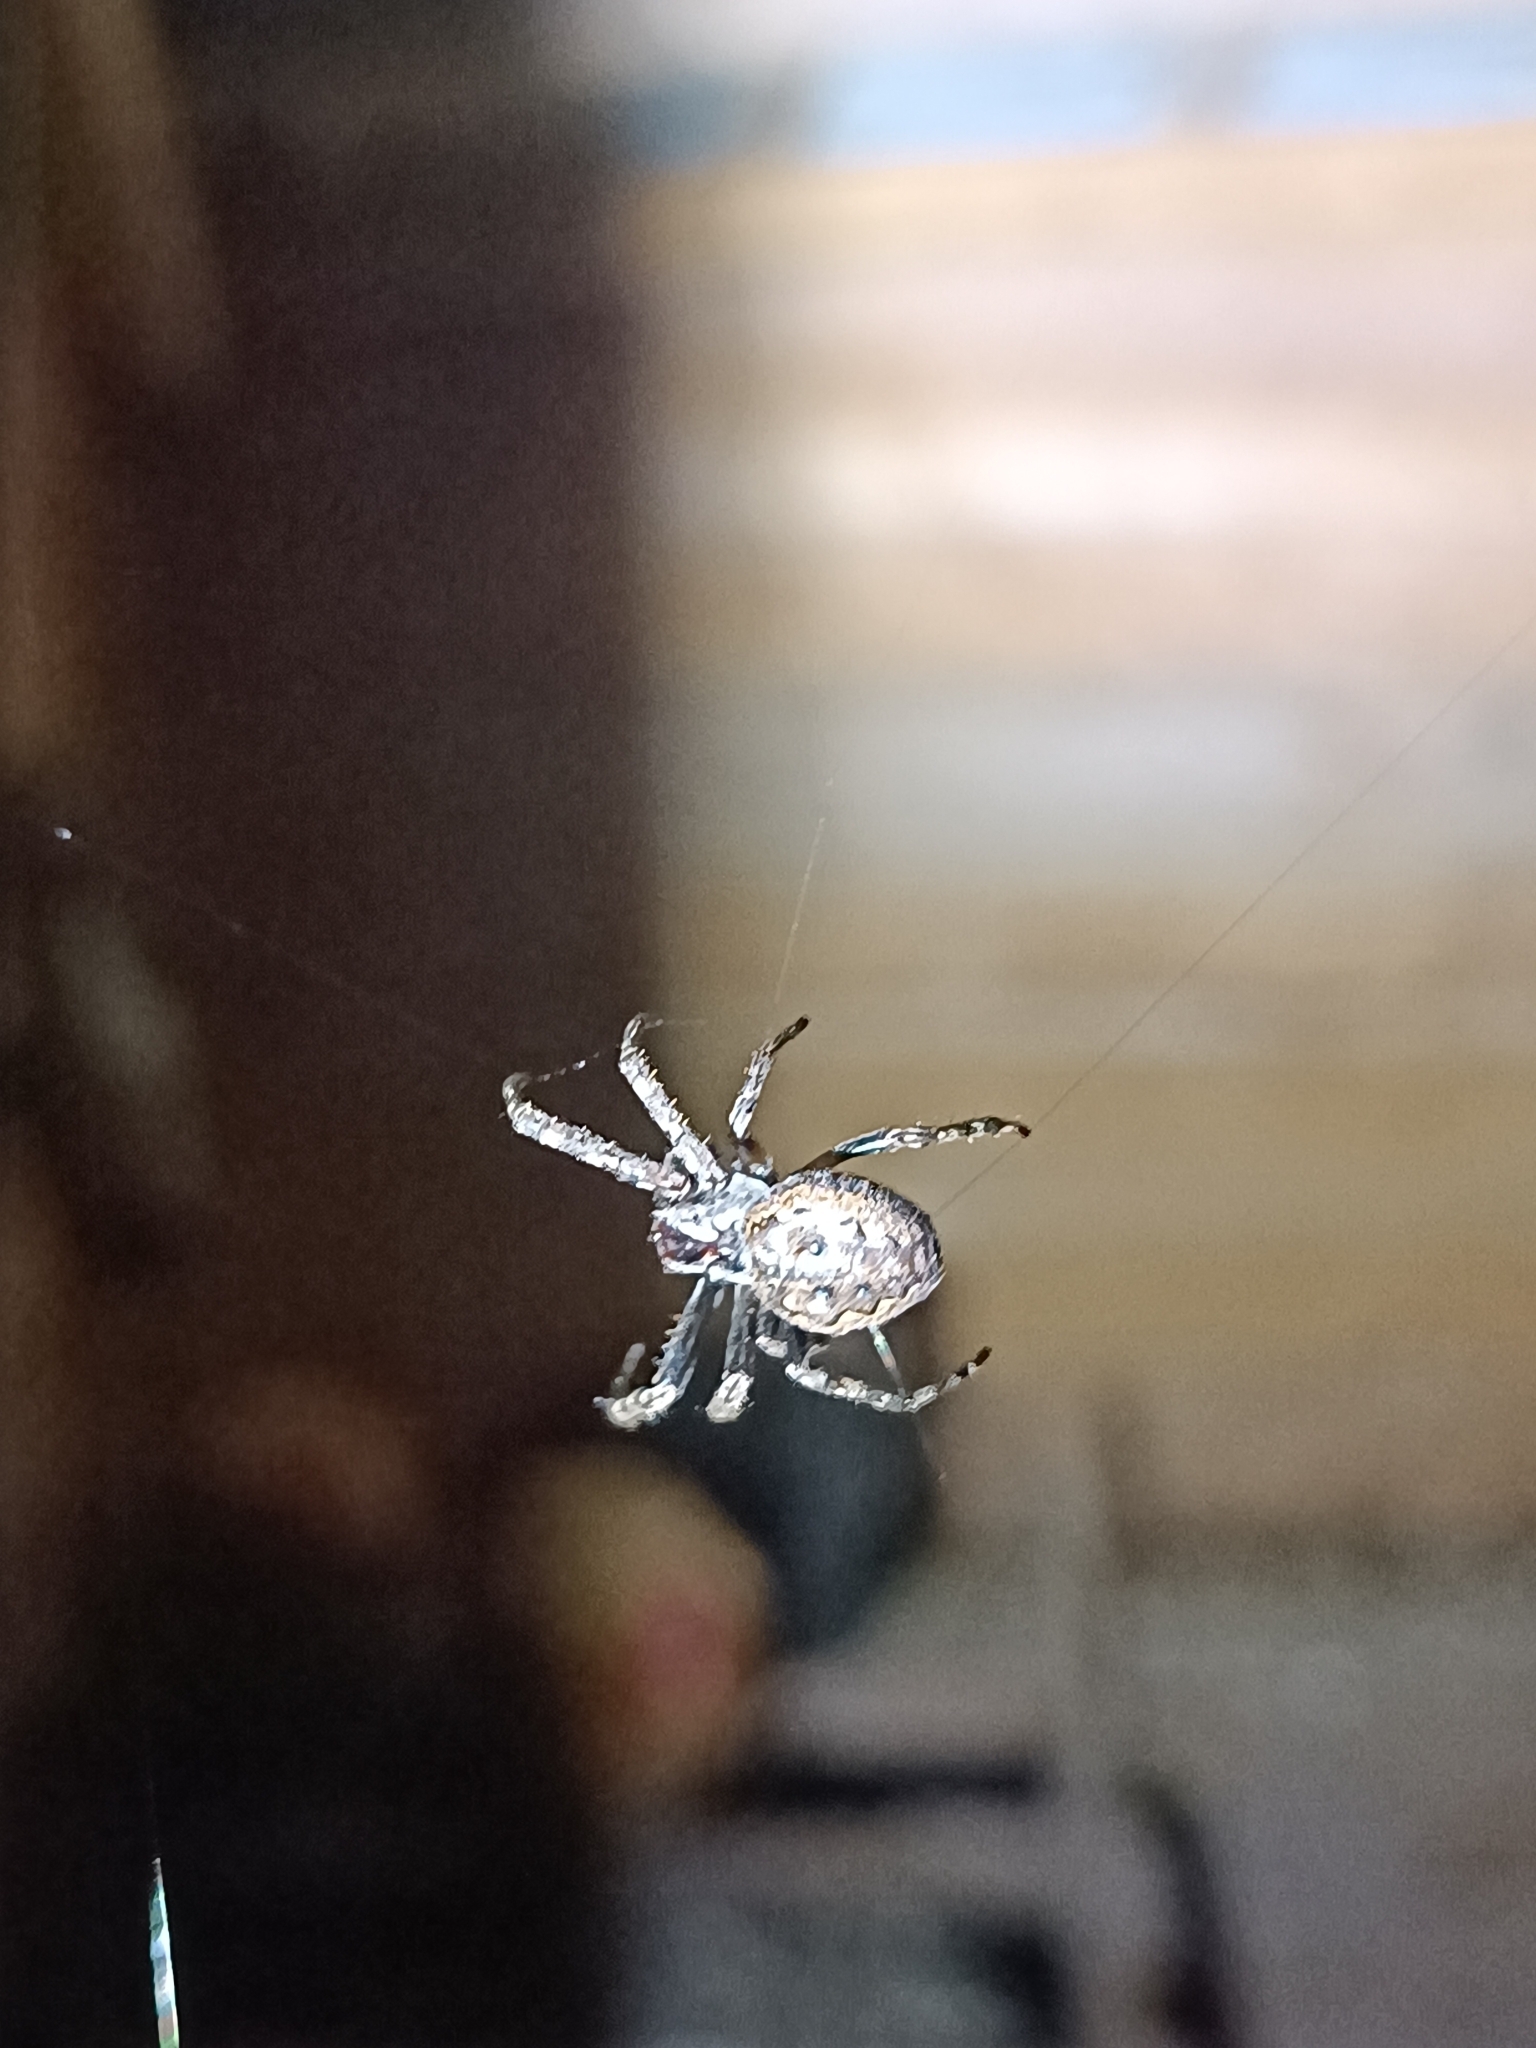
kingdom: Animalia
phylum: Arthropoda
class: Arachnida
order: Araneae
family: Araneidae
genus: Nuctenea
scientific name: Nuctenea umbratica
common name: Toad spider
